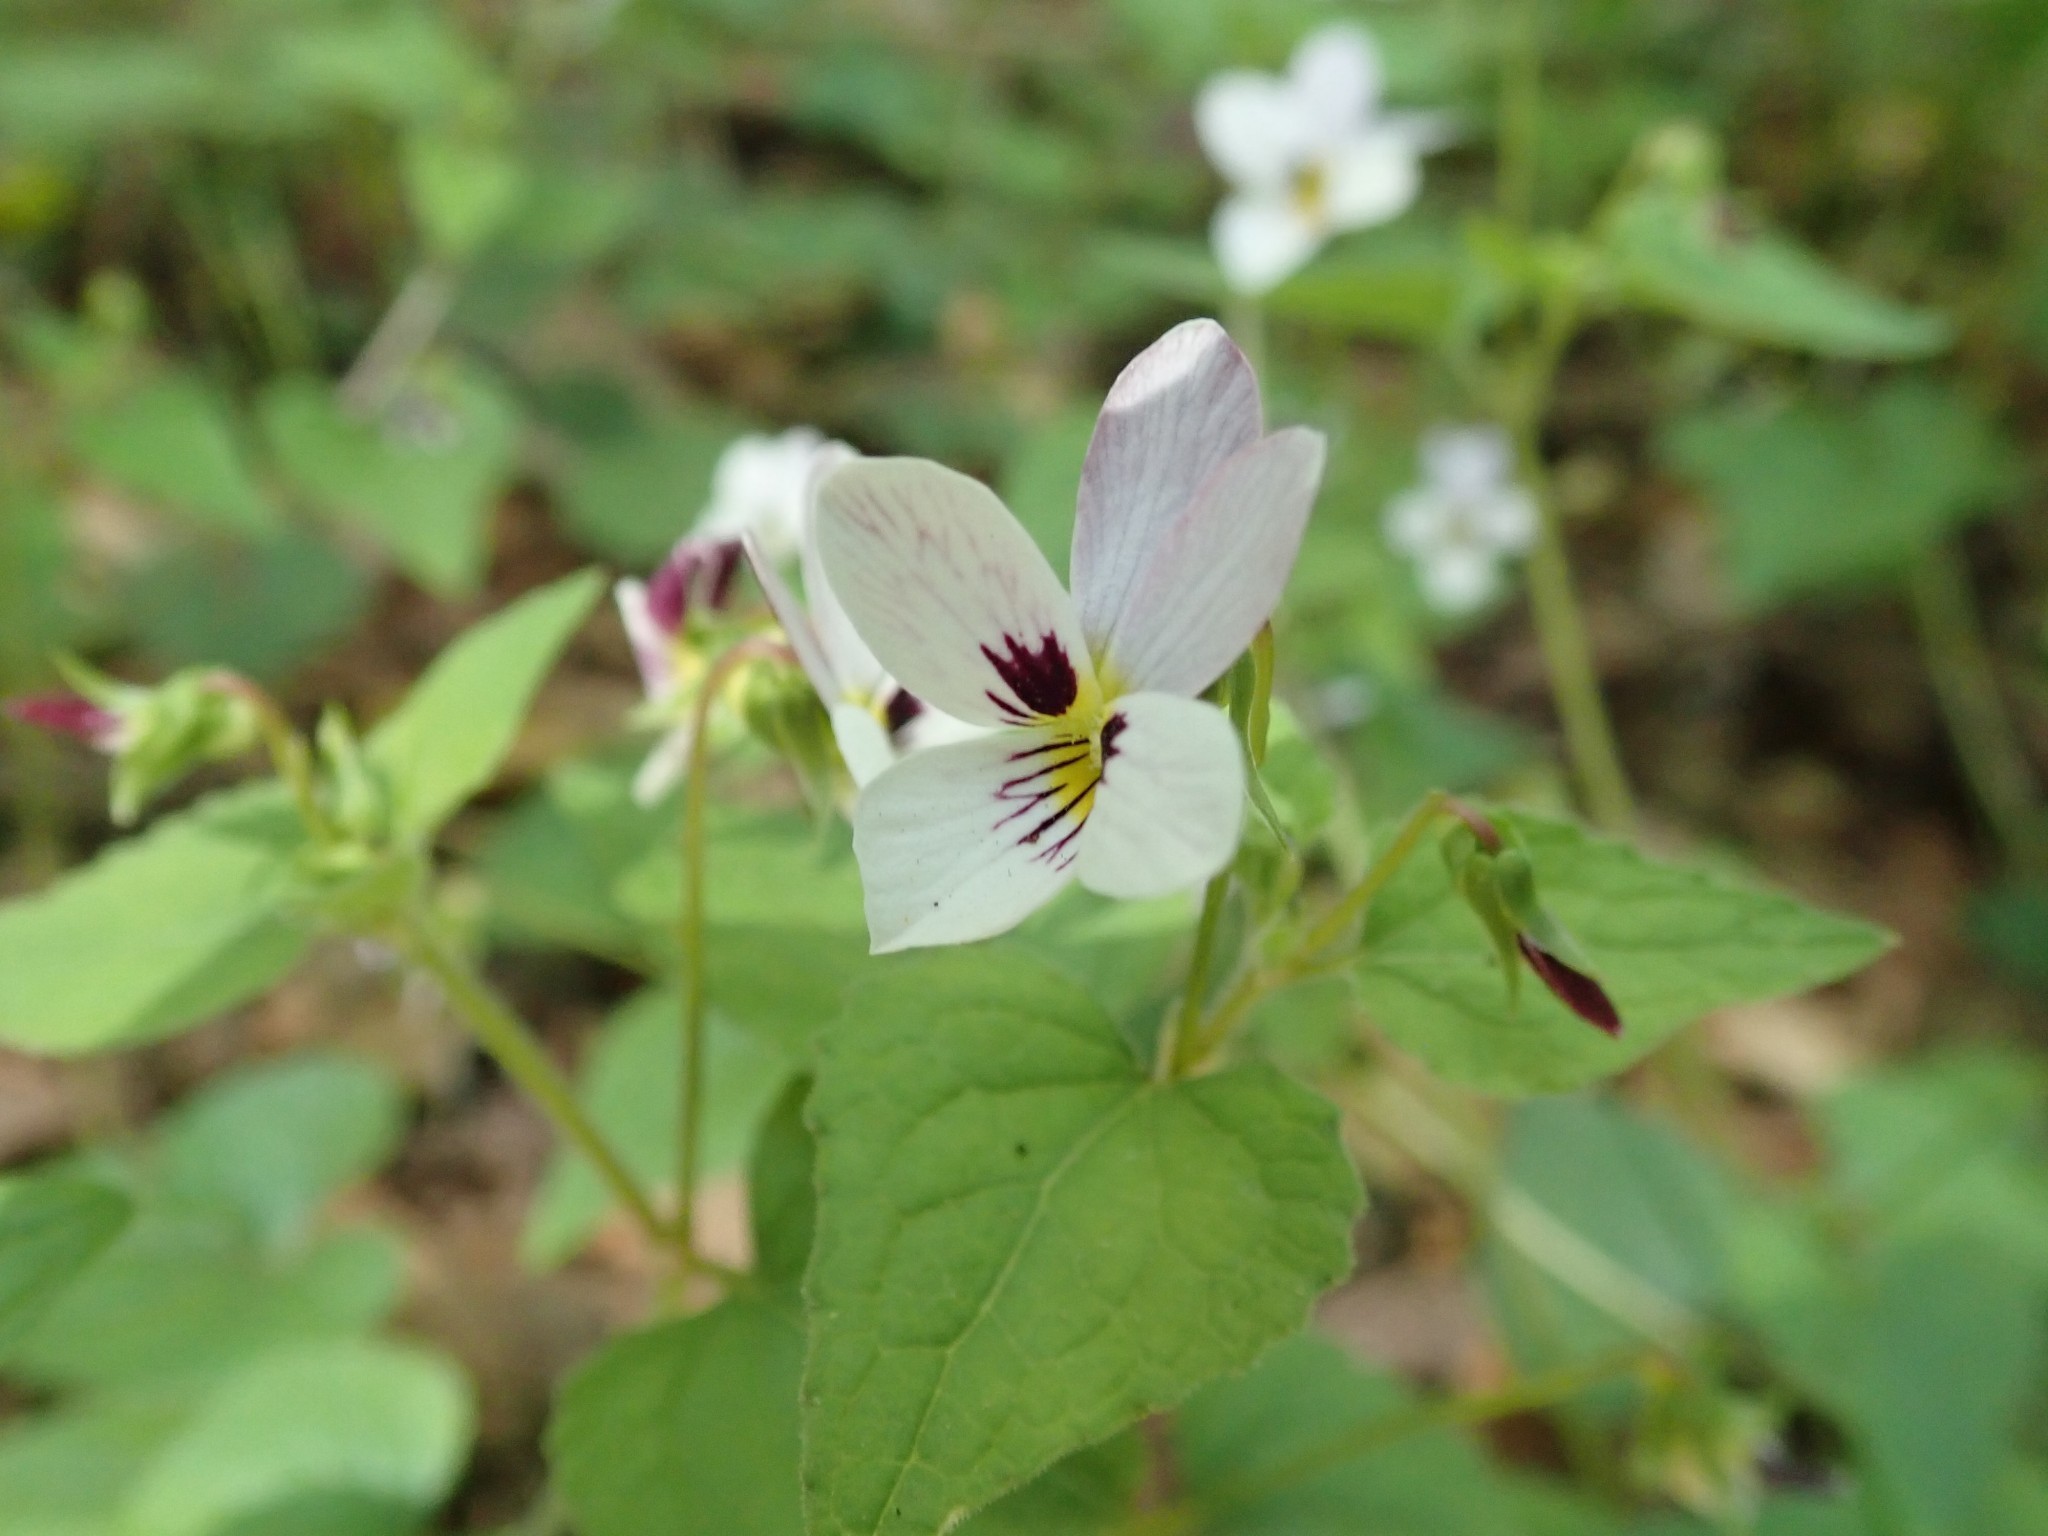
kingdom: Plantae
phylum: Tracheophyta
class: Magnoliopsida
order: Malpighiales
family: Violaceae
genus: Viola
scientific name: Viola ocellata
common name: Western heart's ease
